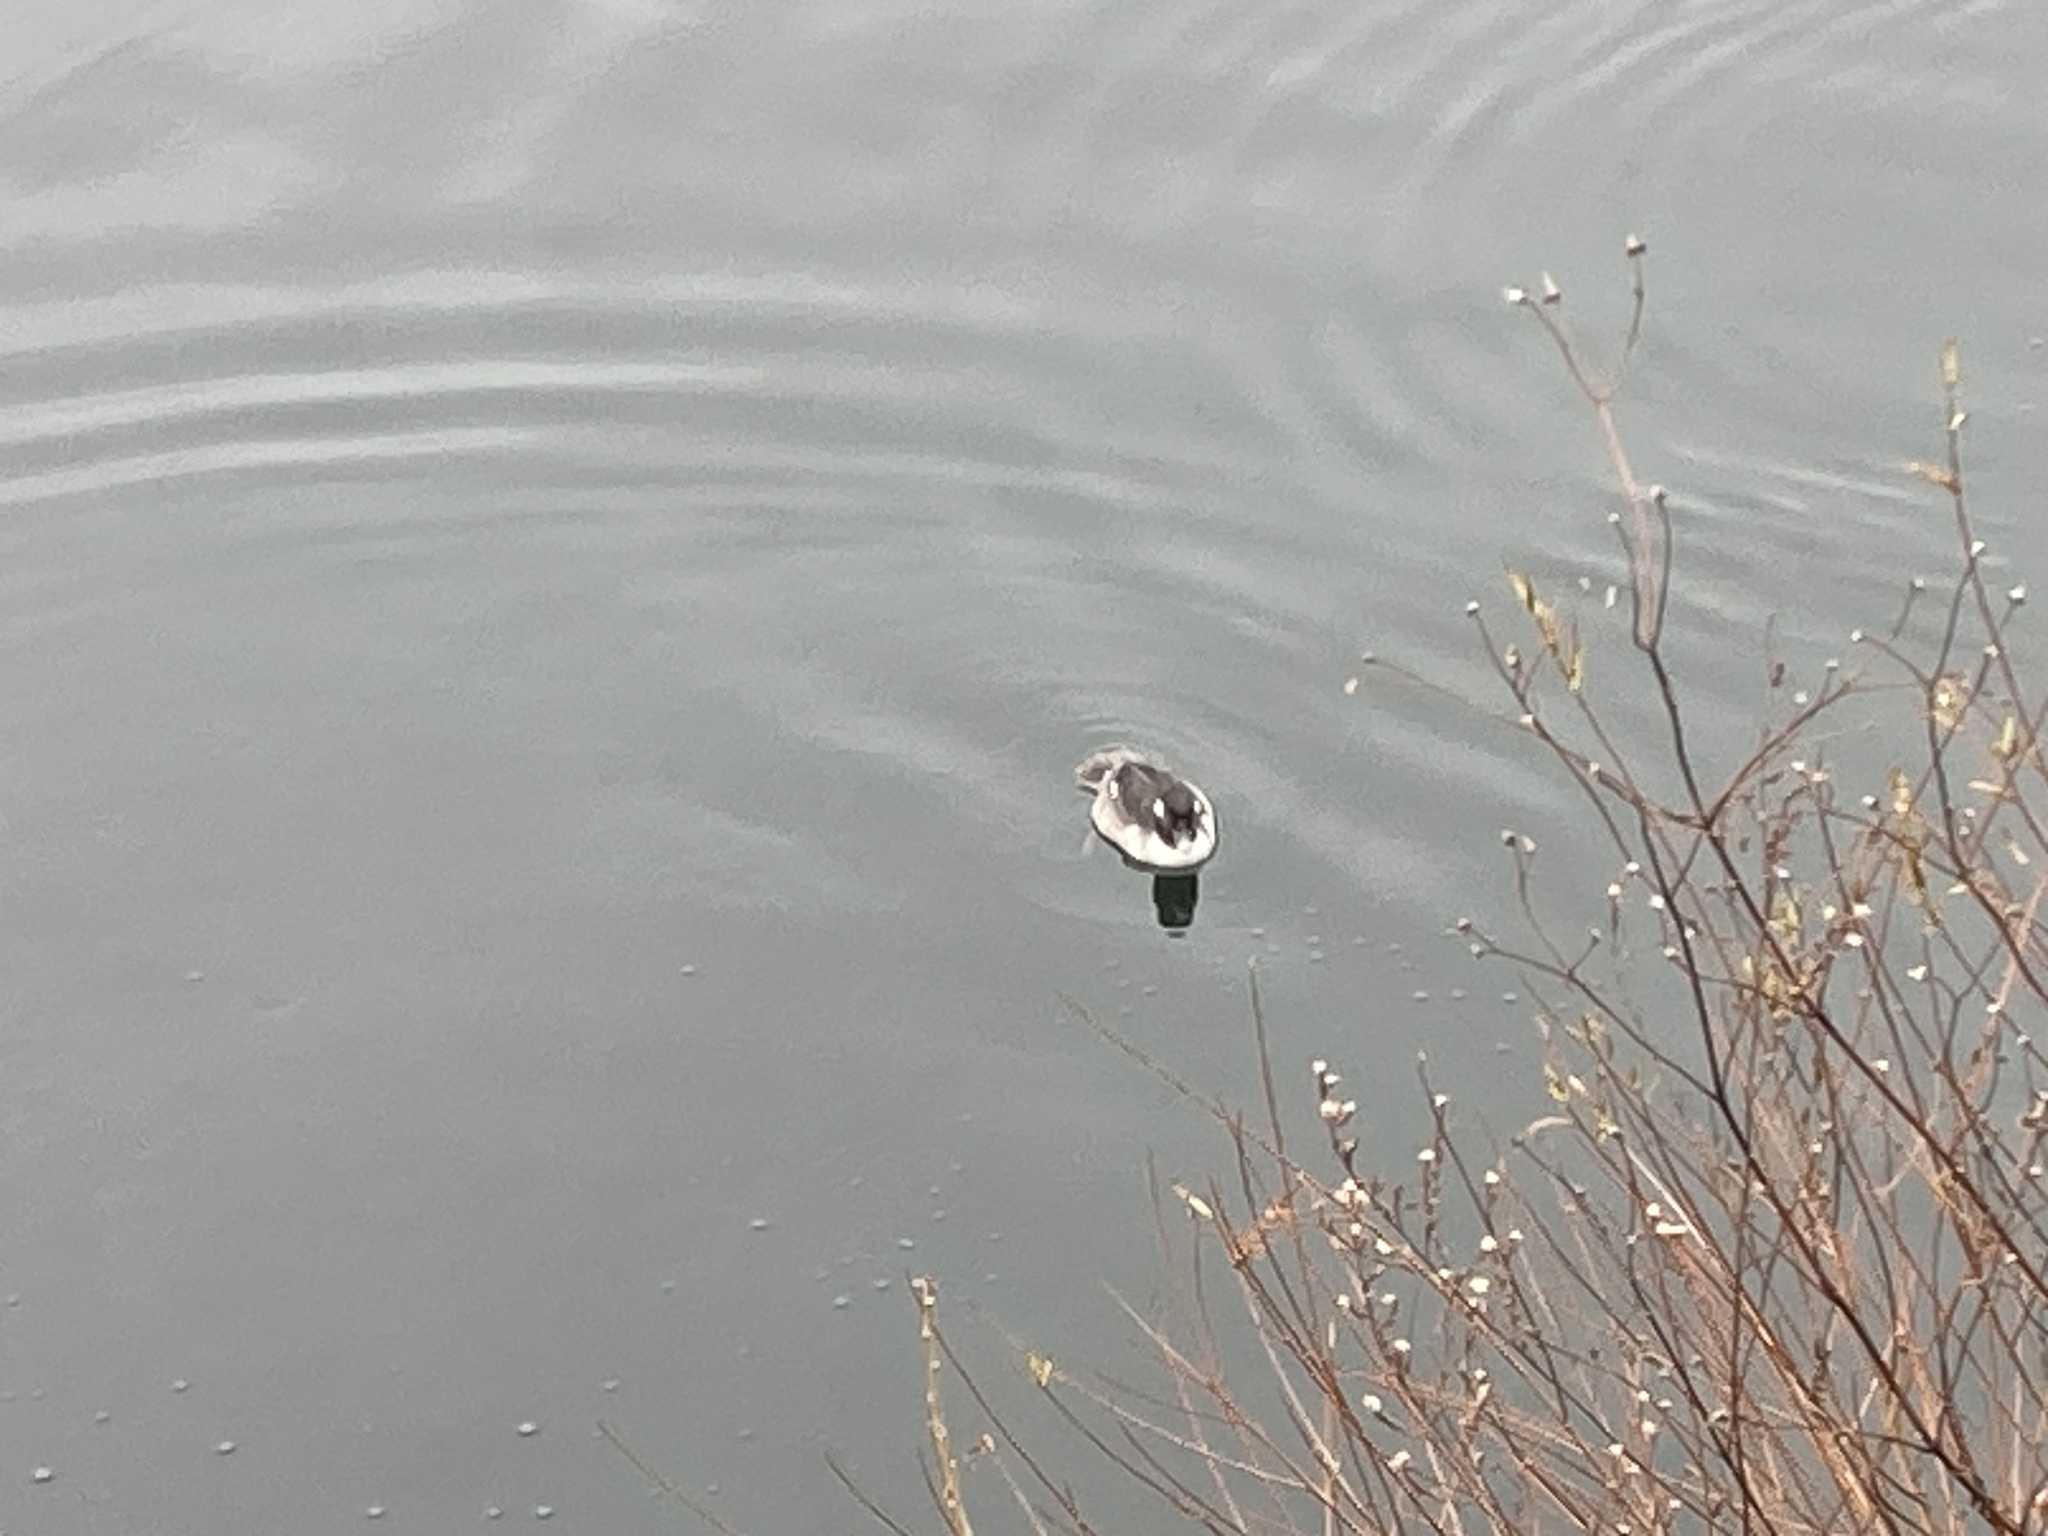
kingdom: Animalia
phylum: Chordata
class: Aves
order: Anseriformes
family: Anatidae
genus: Bucephala
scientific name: Bucephala albeola
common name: Bufflehead
